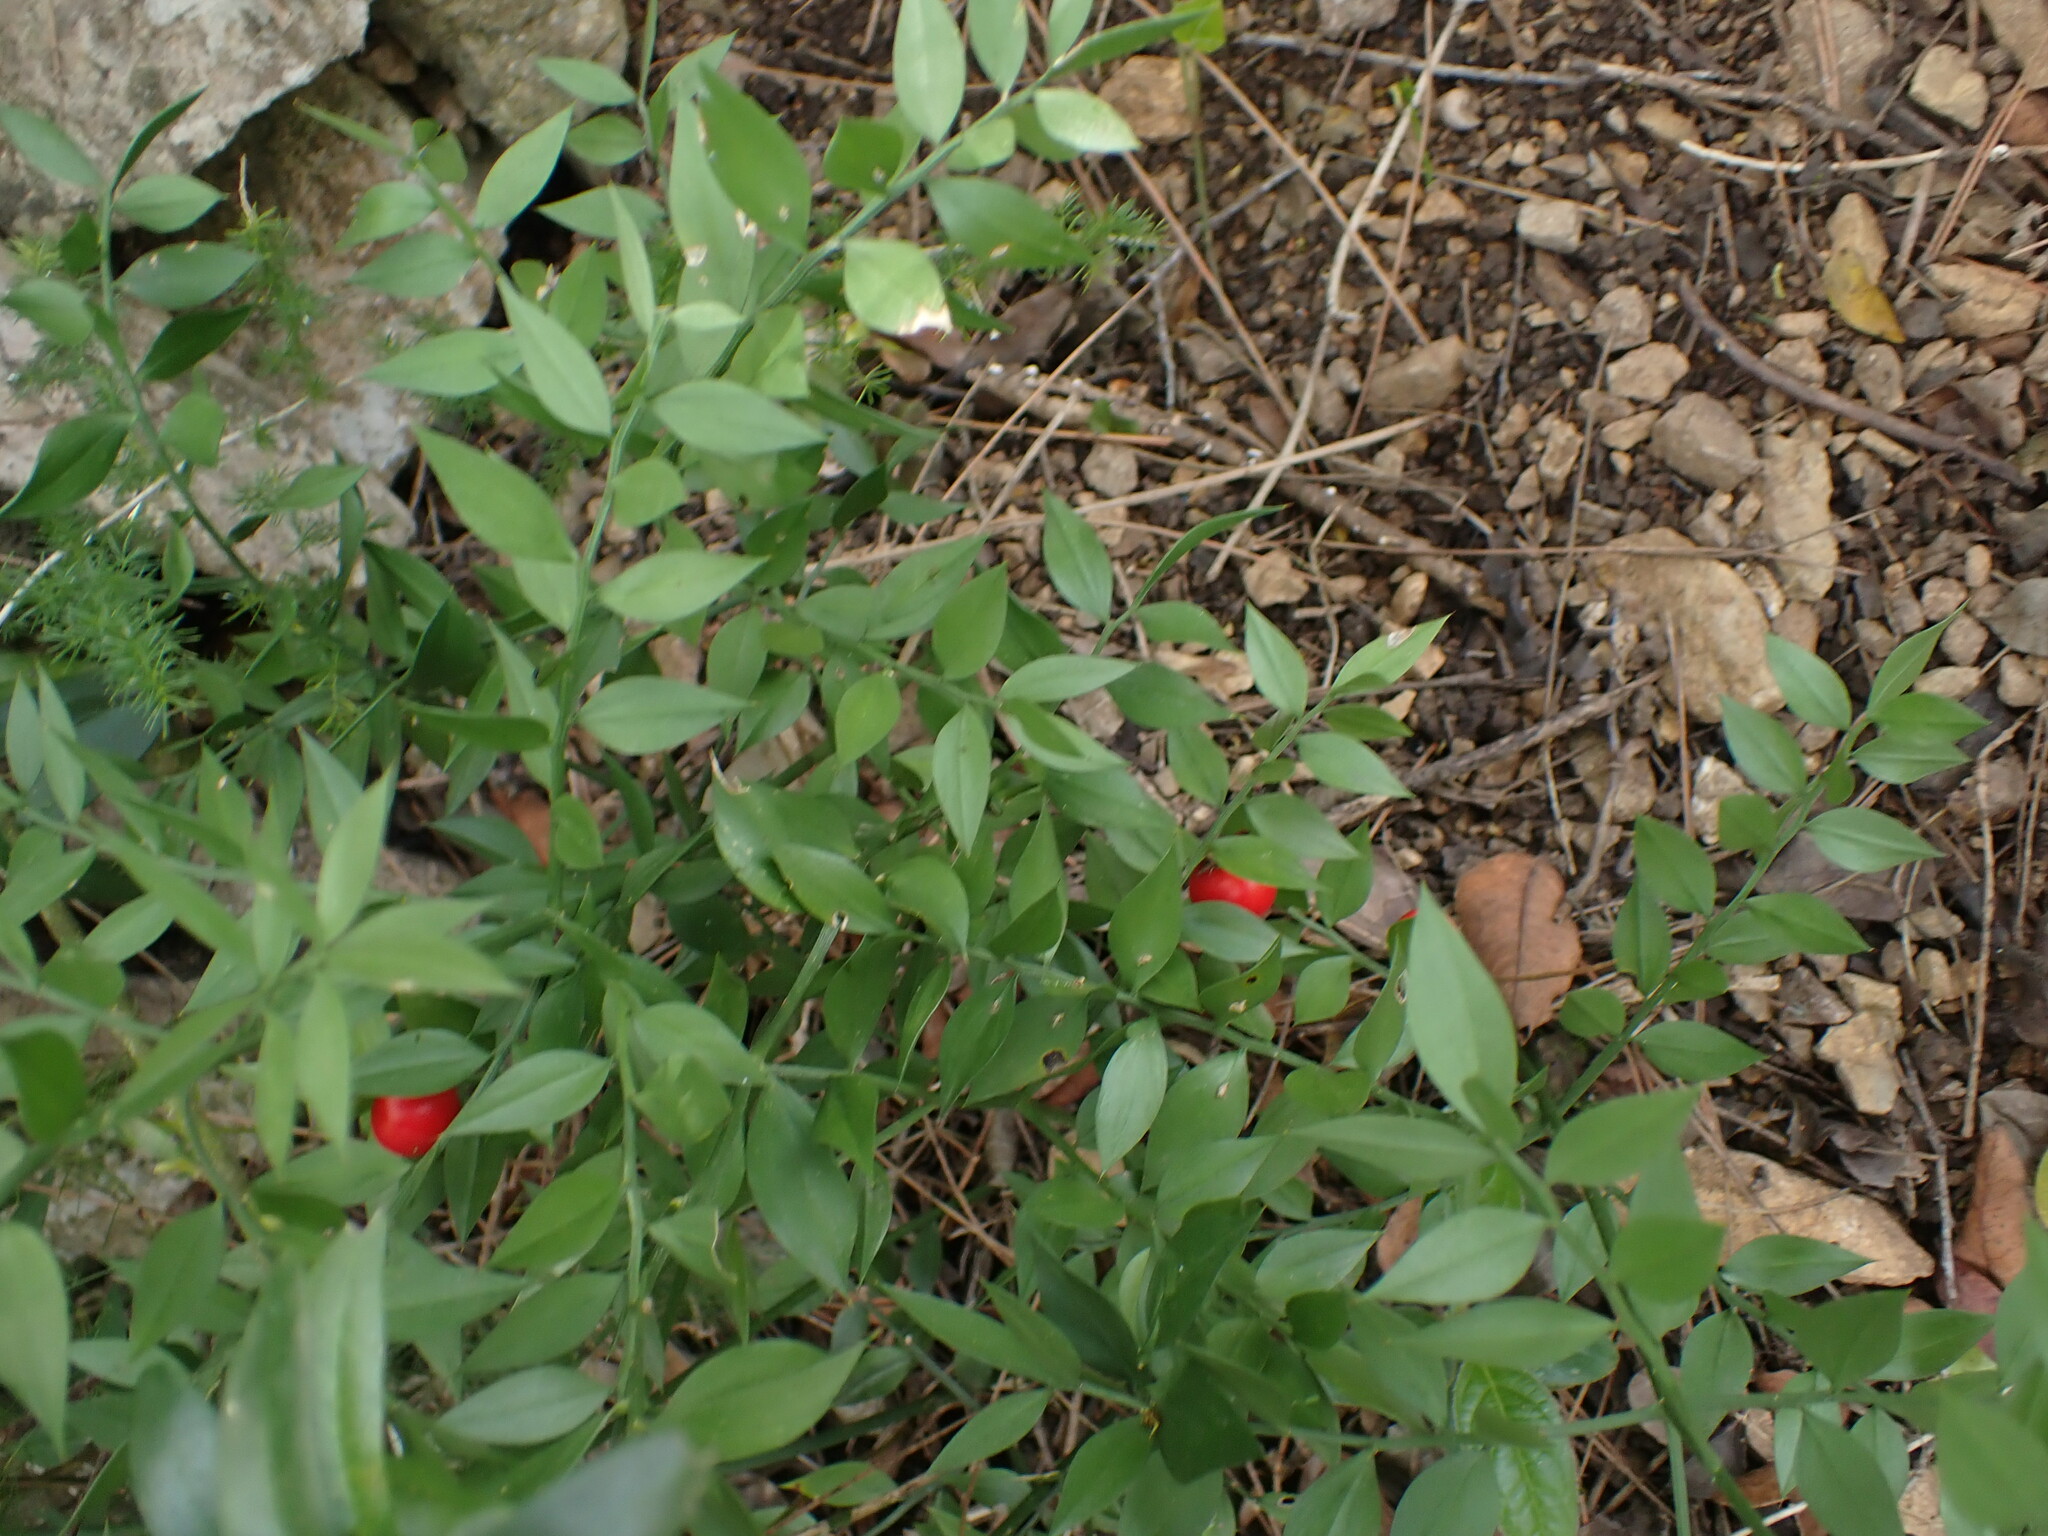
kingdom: Plantae
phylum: Tracheophyta
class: Liliopsida
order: Asparagales
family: Asparagaceae
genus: Ruscus
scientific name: Ruscus aculeatus
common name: Butcher's-broom
